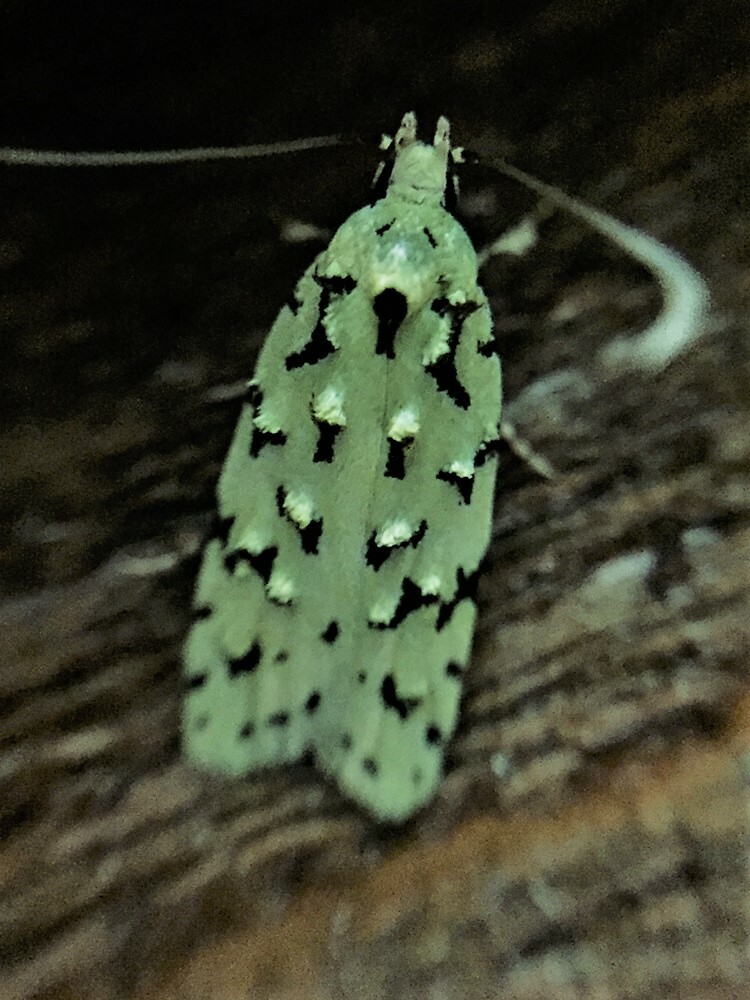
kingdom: Animalia
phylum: Arthropoda
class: Insecta
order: Lepidoptera
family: Oecophoridae
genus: Izatha
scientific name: Izatha peroneanella
